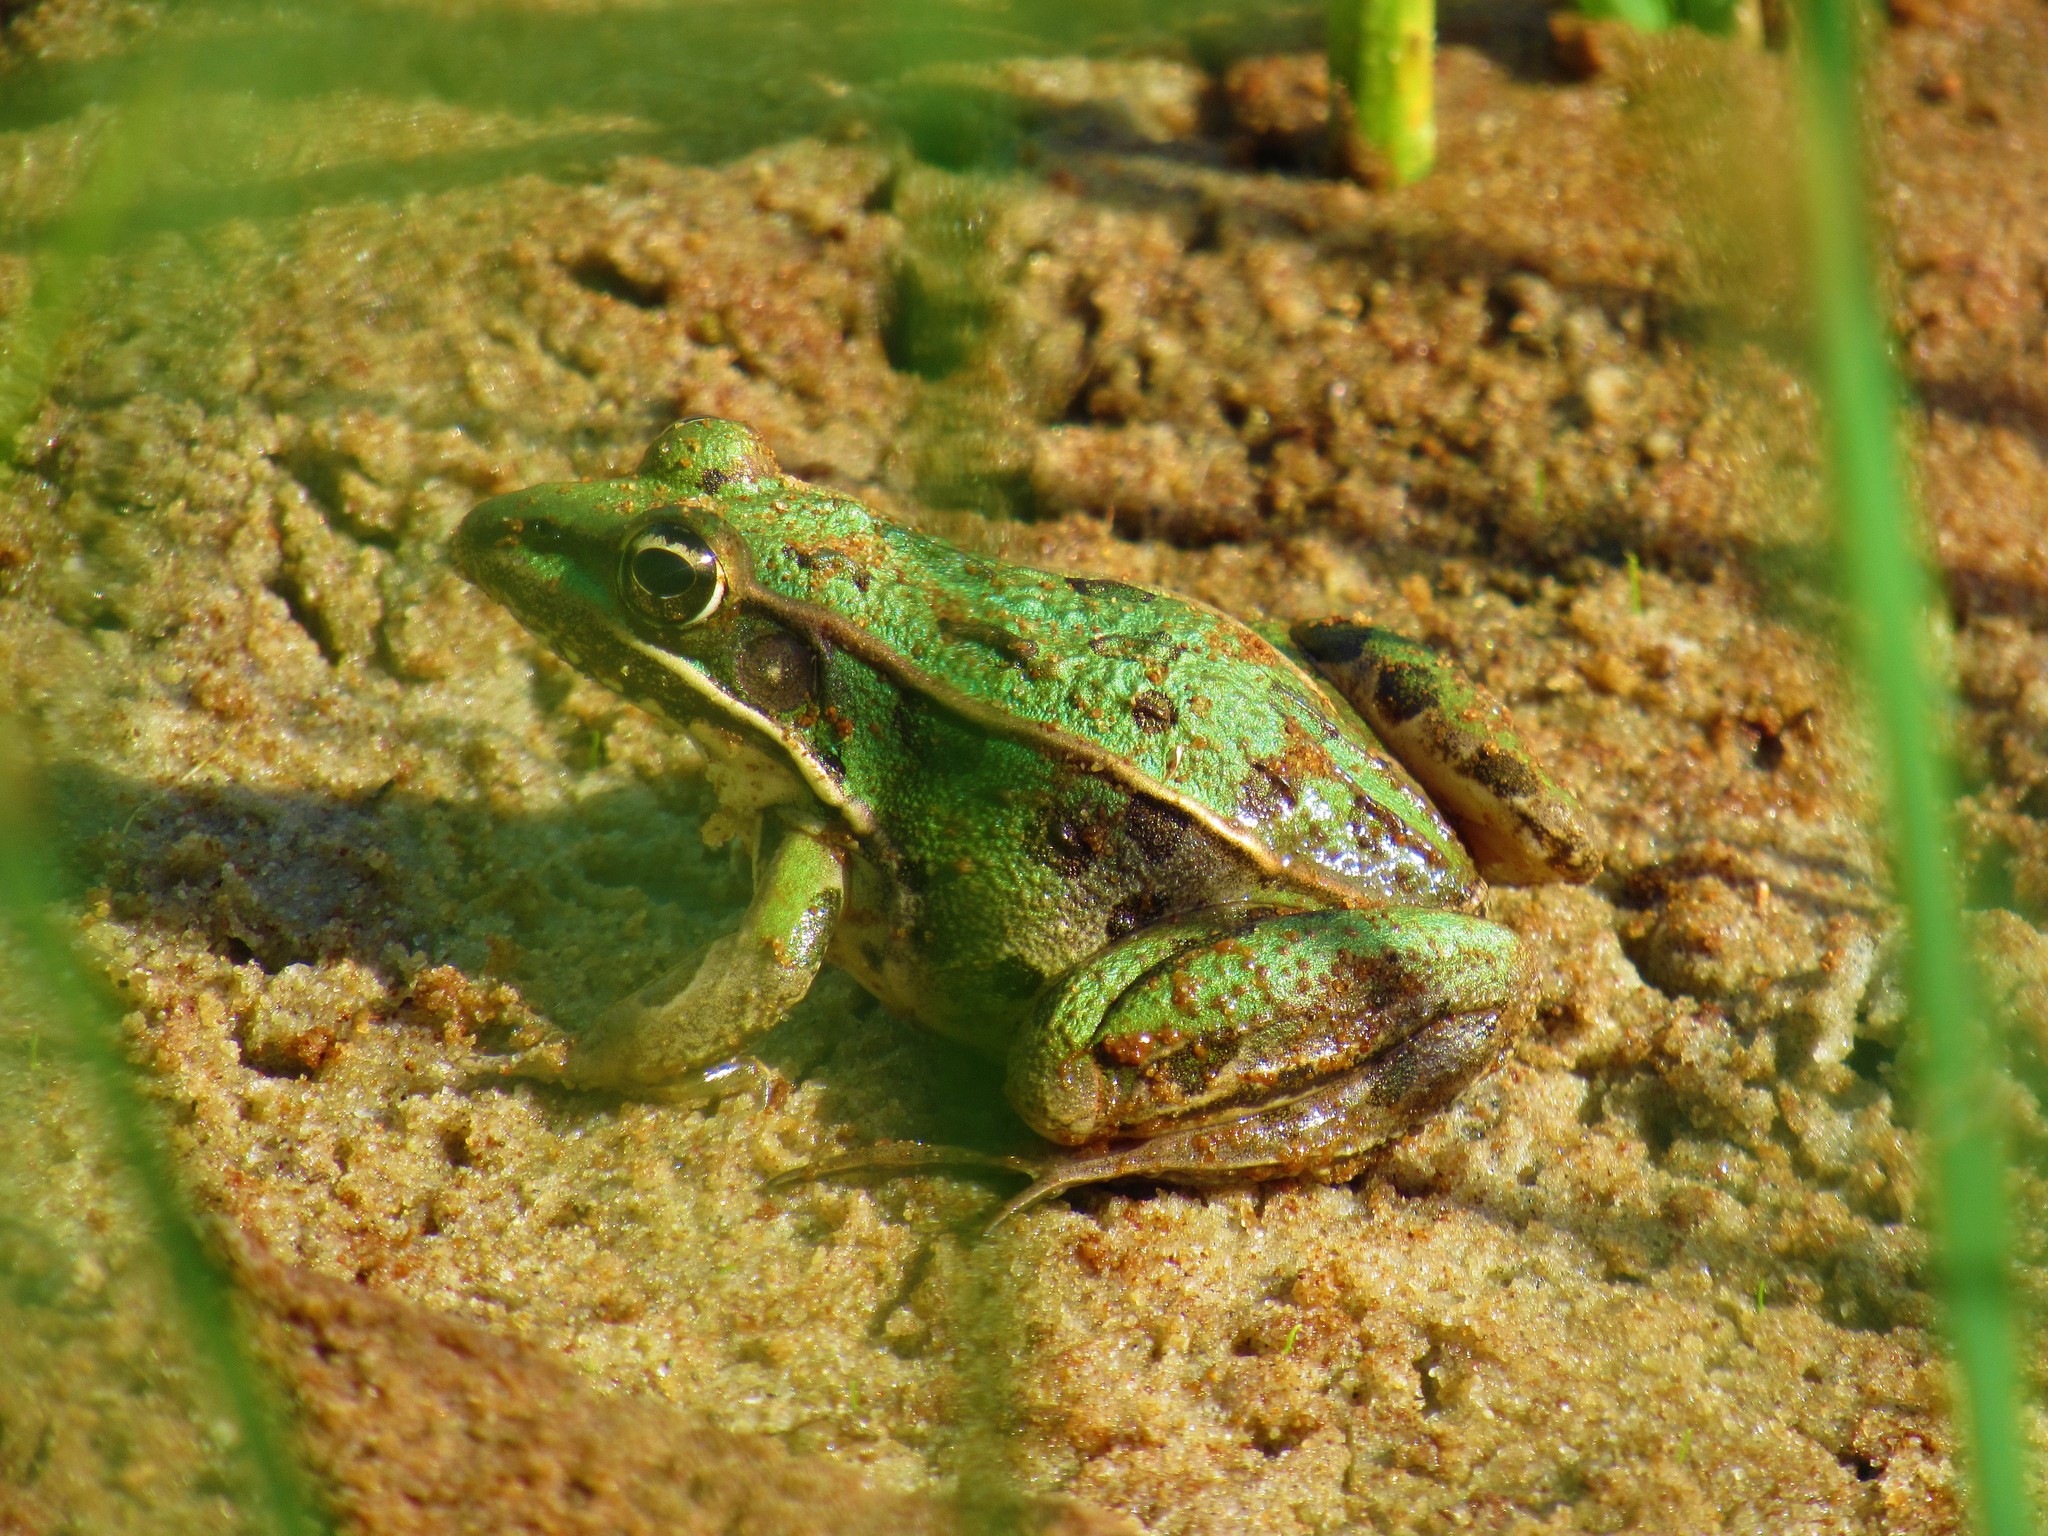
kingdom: Animalia
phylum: Chordata
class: Amphibia
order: Anura
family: Ranidae
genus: Lithobates
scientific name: Lithobates sphenocephalus
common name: Southern leopard frog
